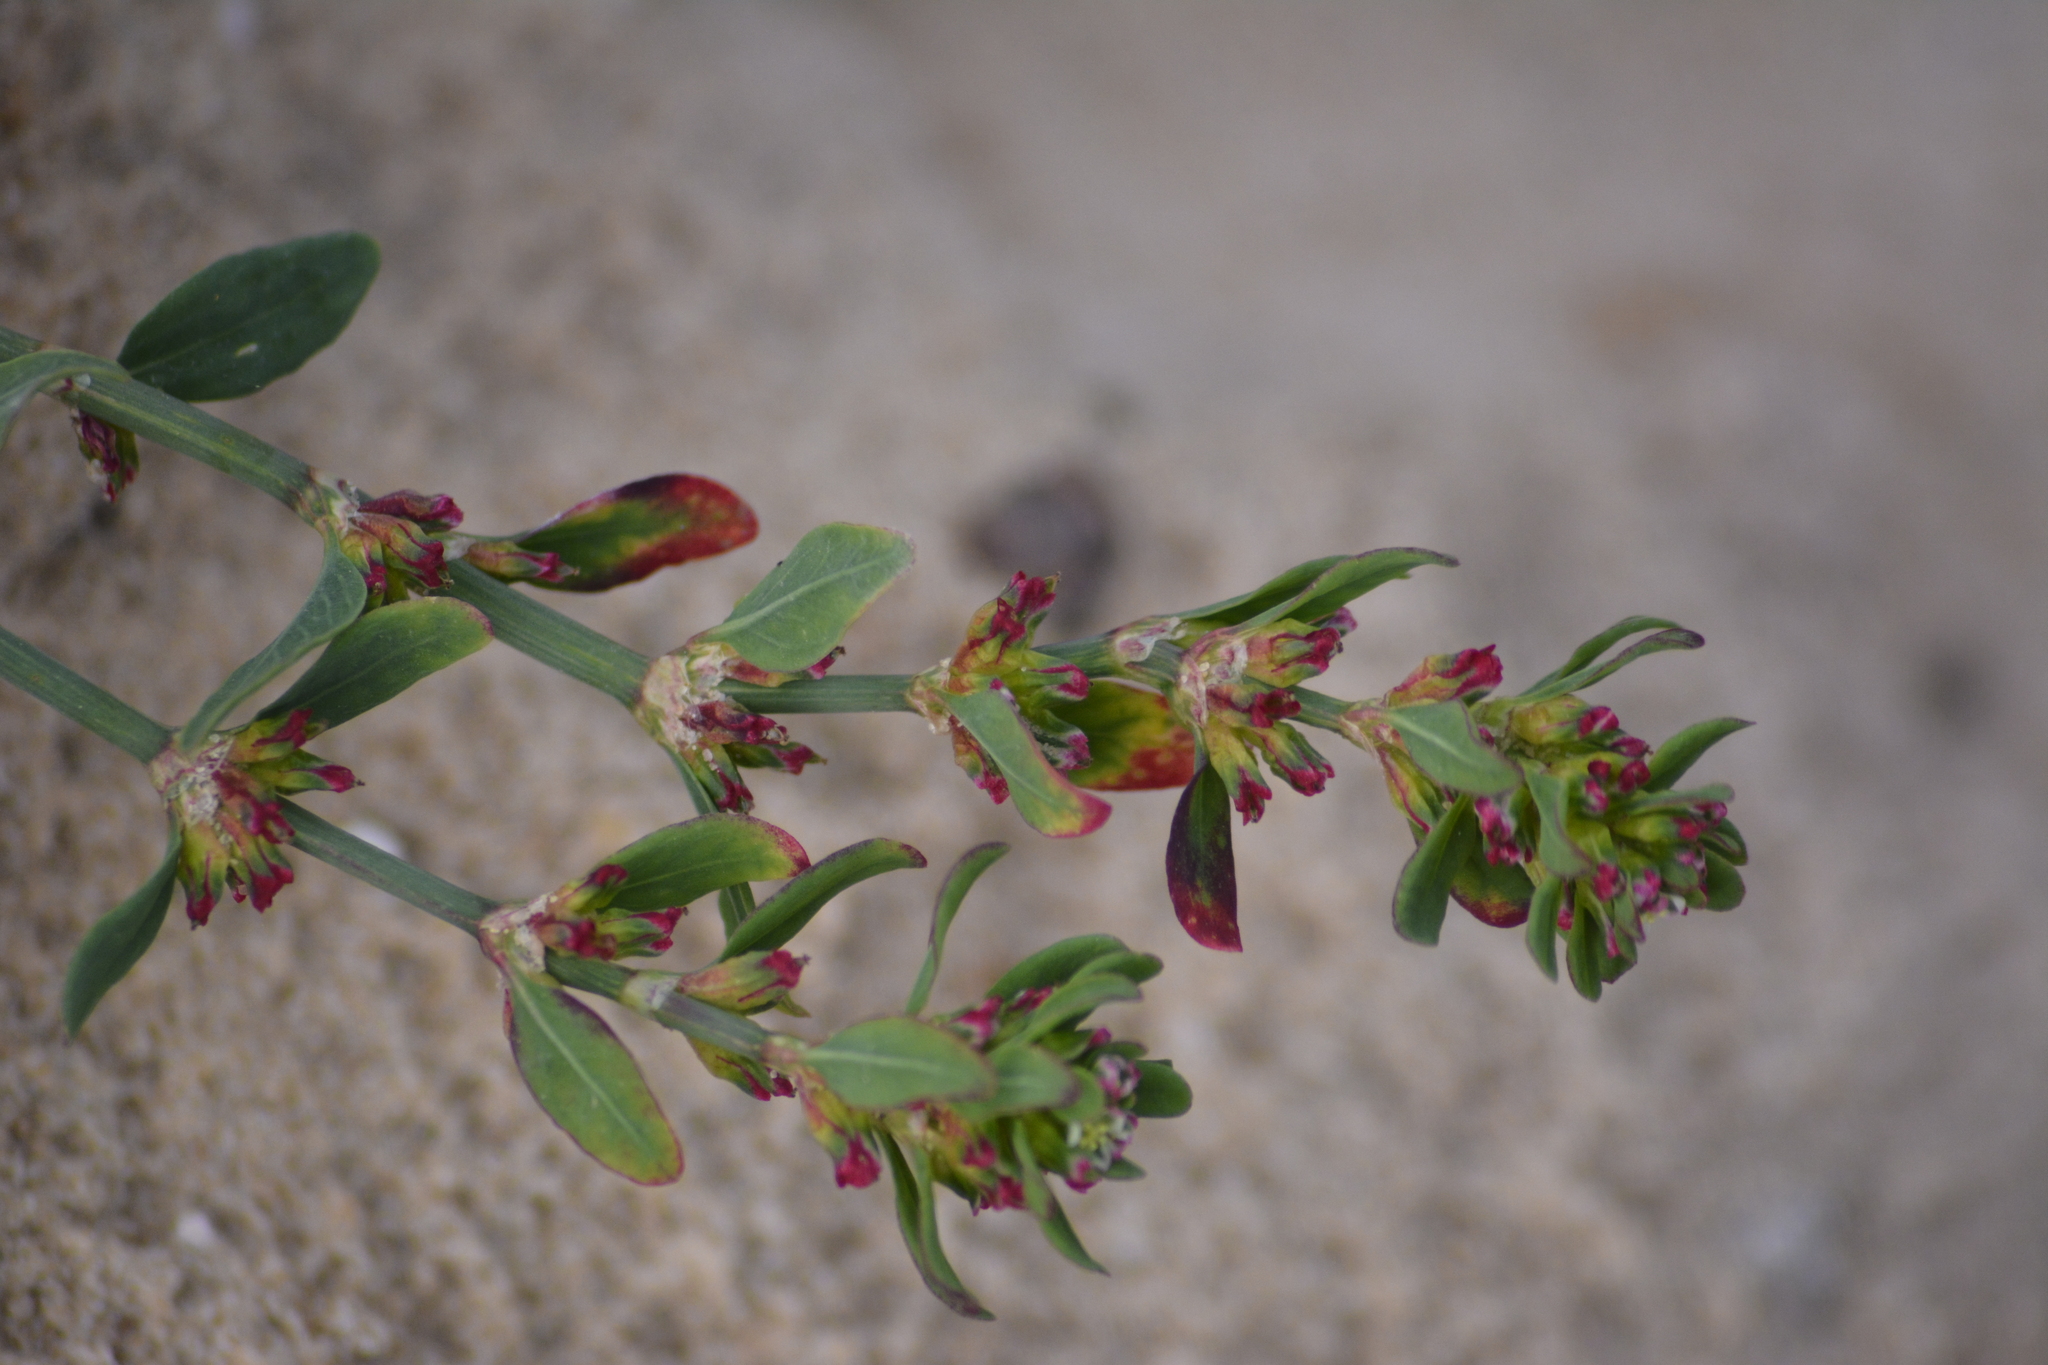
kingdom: Plantae
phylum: Tracheophyta
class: Magnoliopsida
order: Caryophyllales
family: Polygonaceae
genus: Polygonum
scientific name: Polygonum
